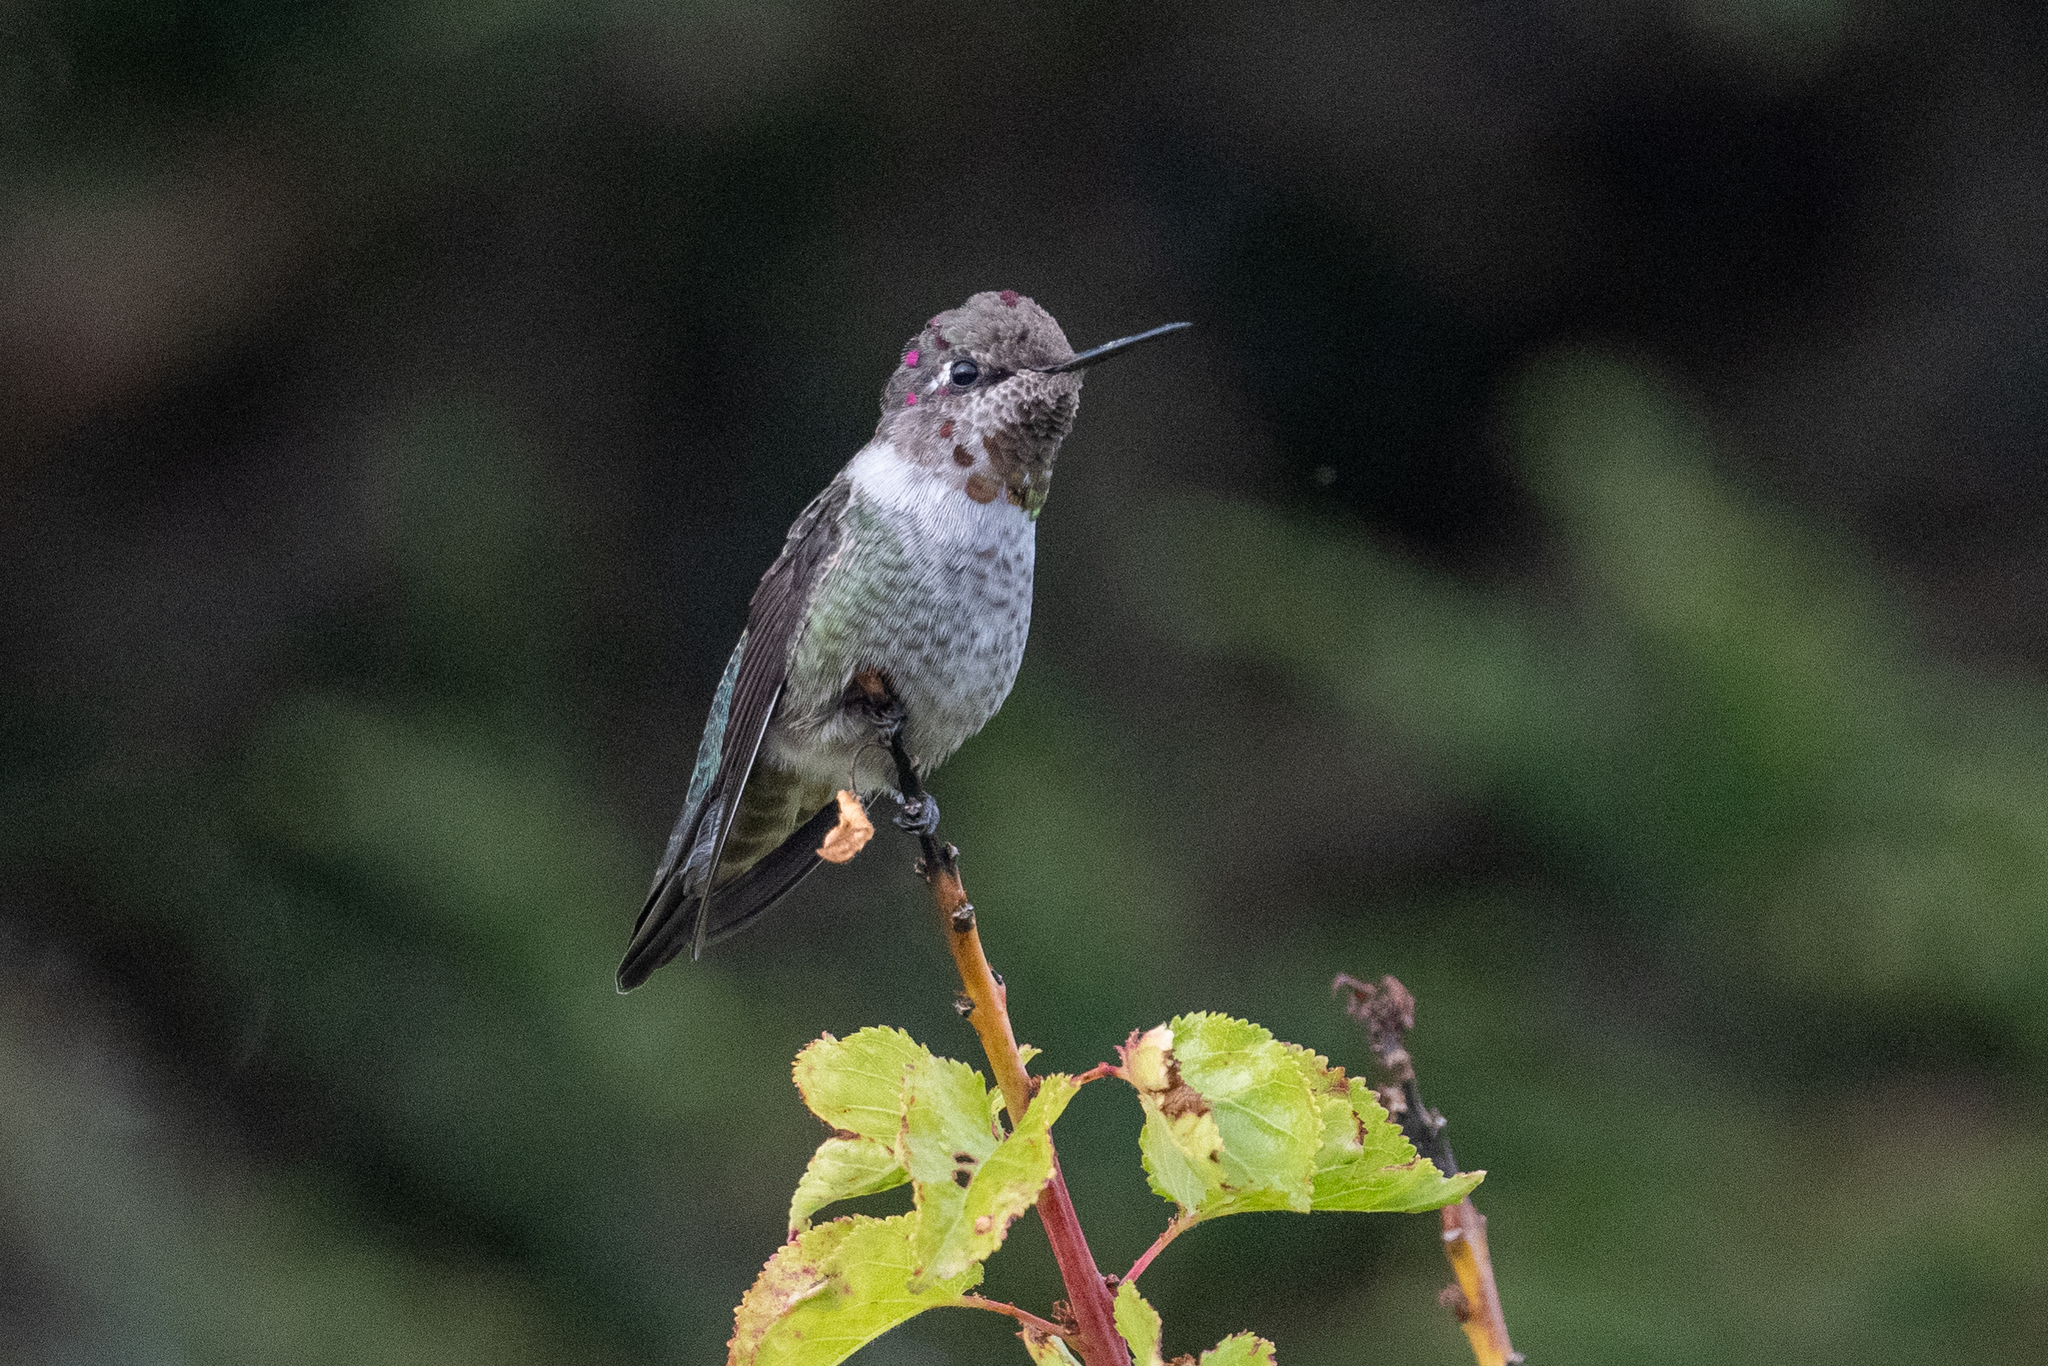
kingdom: Animalia
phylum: Chordata
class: Aves
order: Apodiformes
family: Trochilidae
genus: Calypte
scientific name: Calypte anna
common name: Anna's hummingbird
